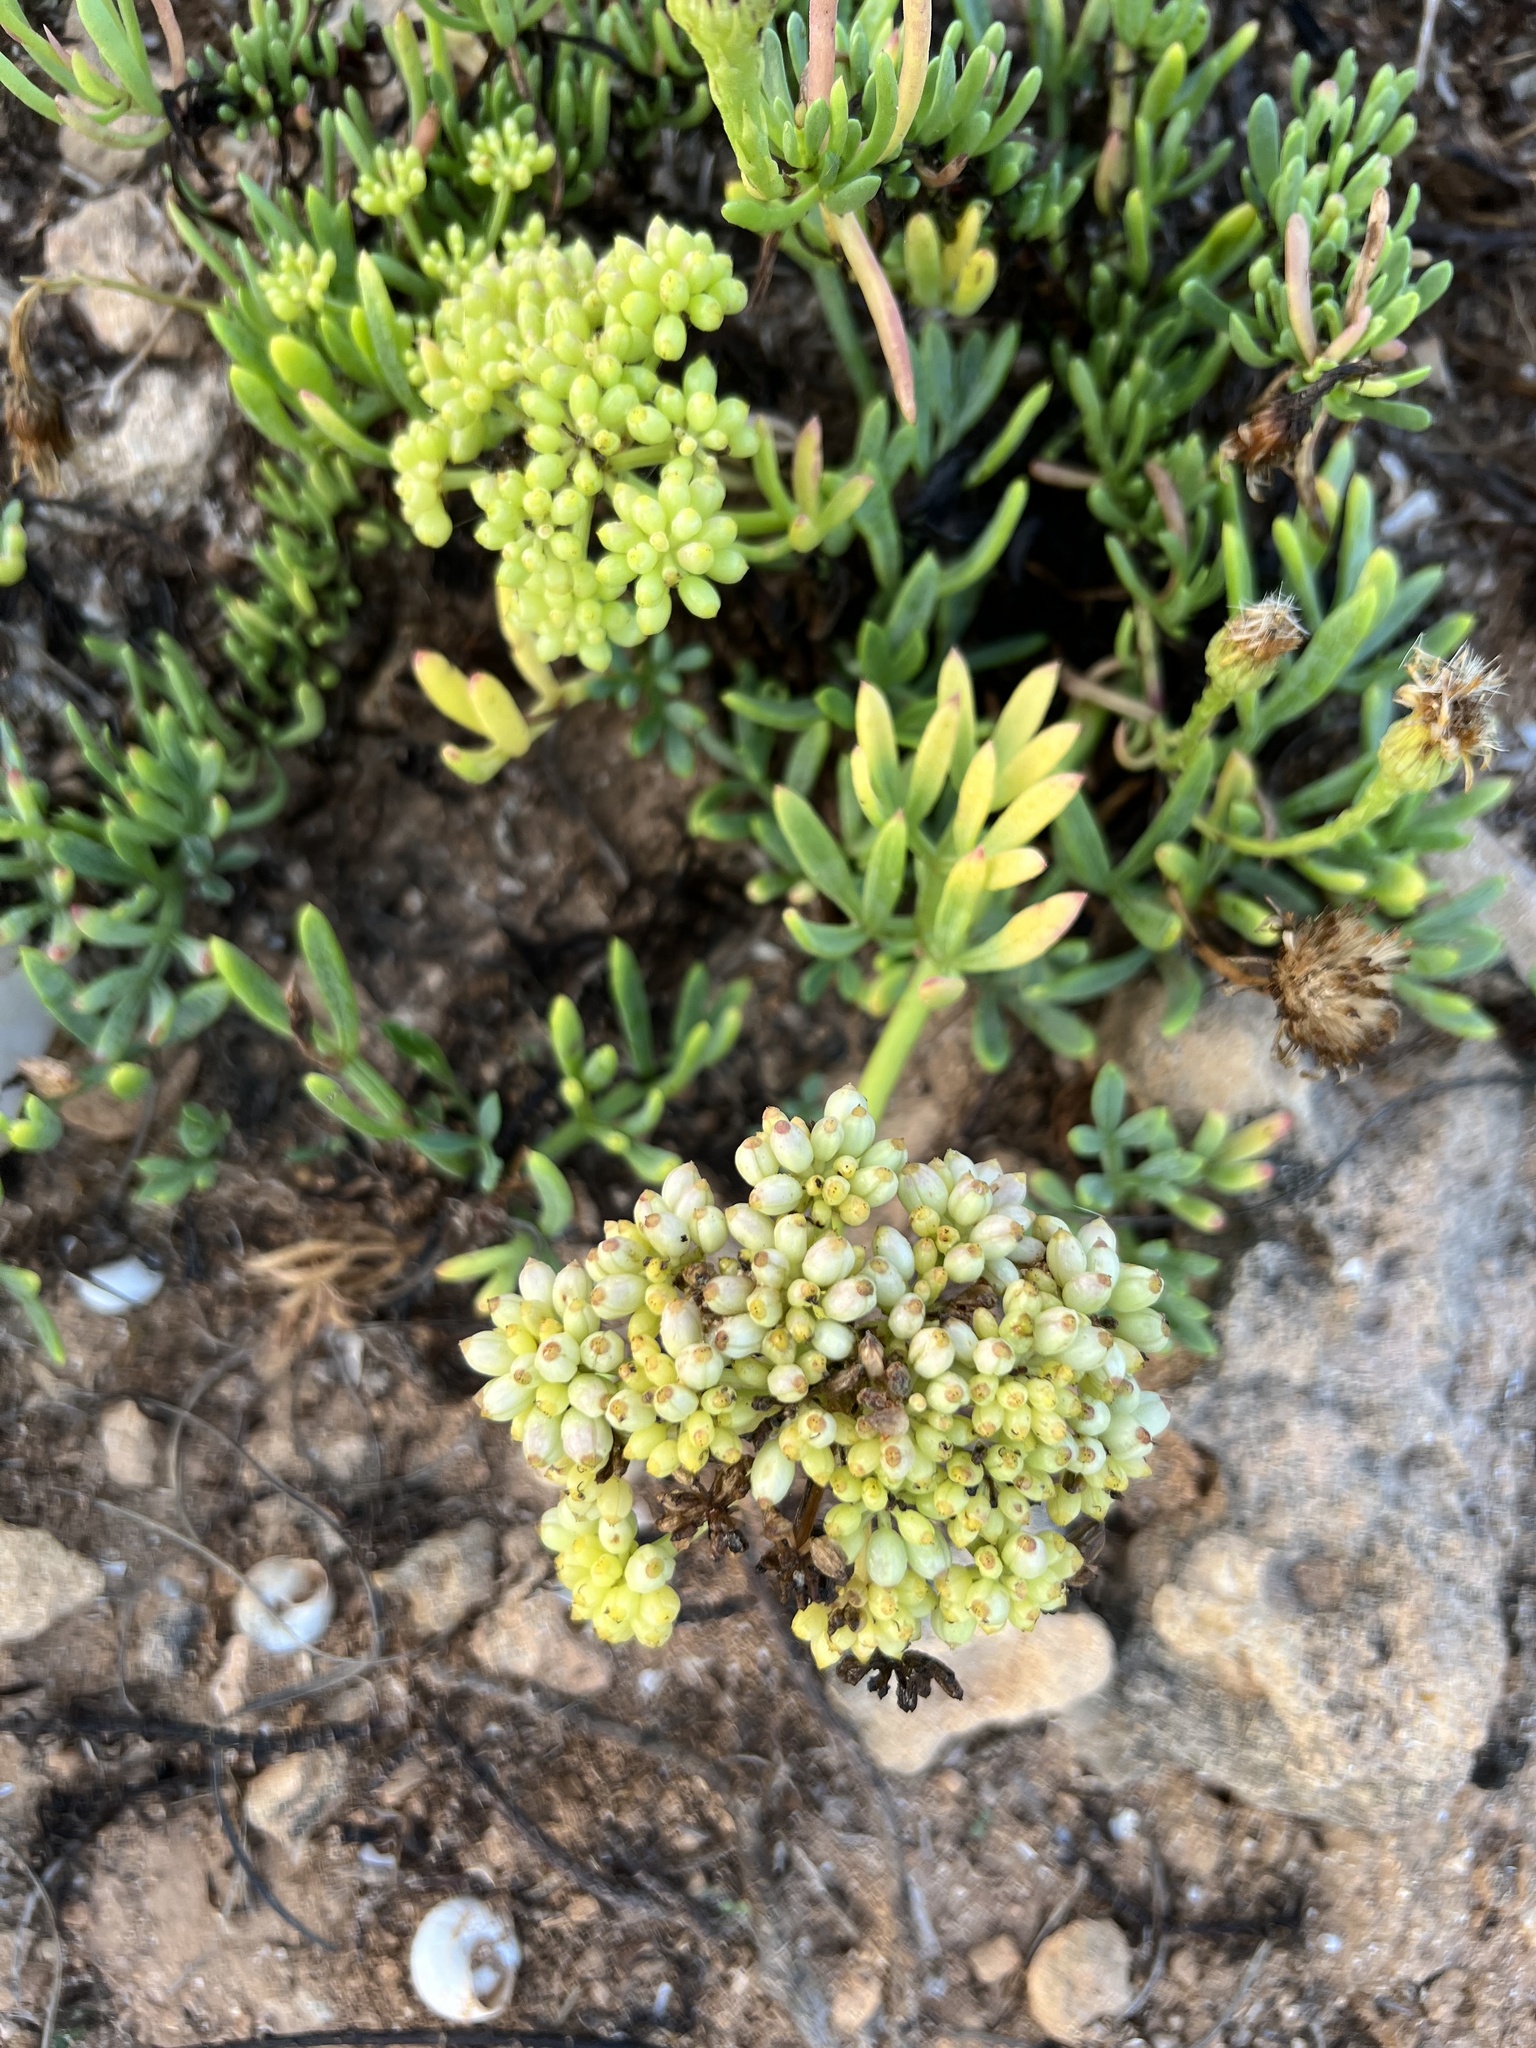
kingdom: Plantae
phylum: Tracheophyta
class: Magnoliopsida
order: Apiales
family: Apiaceae
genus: Crithmum
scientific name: Crithmum maritimum
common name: Rock samphire
